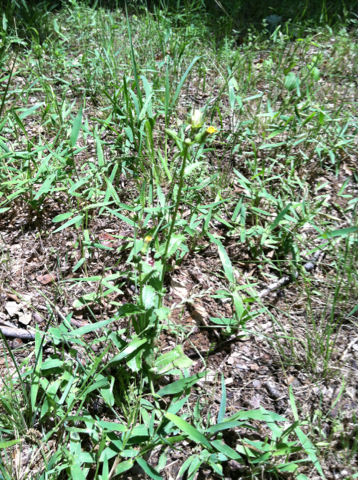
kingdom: Plantae
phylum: Tracheophyta
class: Magnoliopsida
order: Asterales
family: Asteraceae
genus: Sonchus
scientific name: Sonchus asper
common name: Prickly sow-thistle
